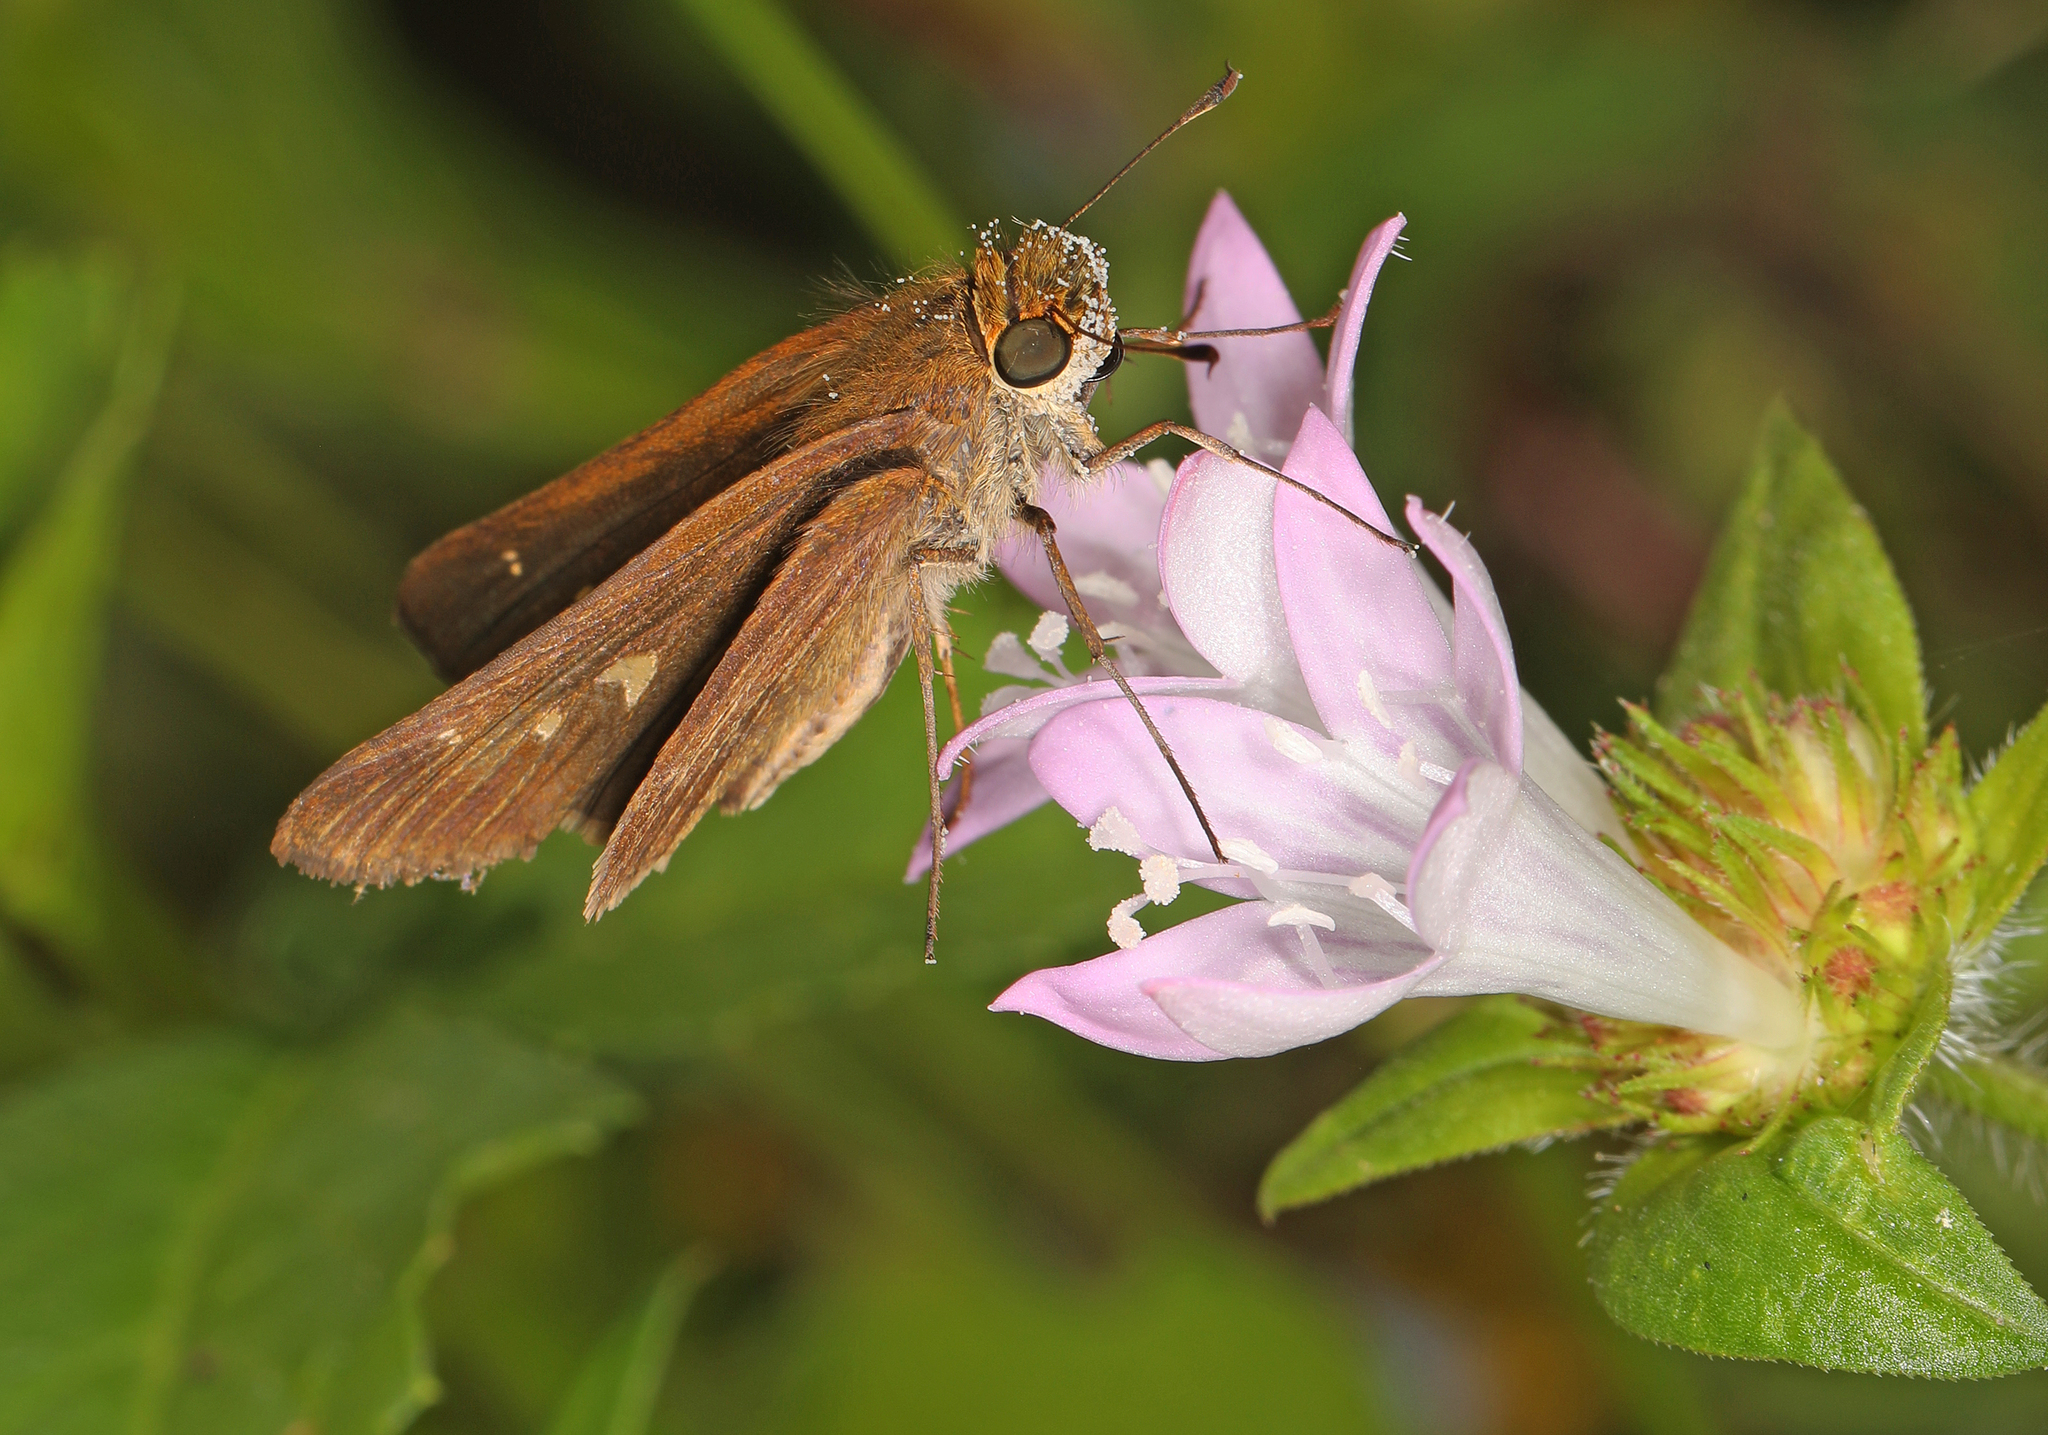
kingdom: Animalia
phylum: Arthropoda
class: Insecta
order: Lepidoptera
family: Hesperiidae
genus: Panoquina
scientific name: Panoquina ocola
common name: Ocola skipper
